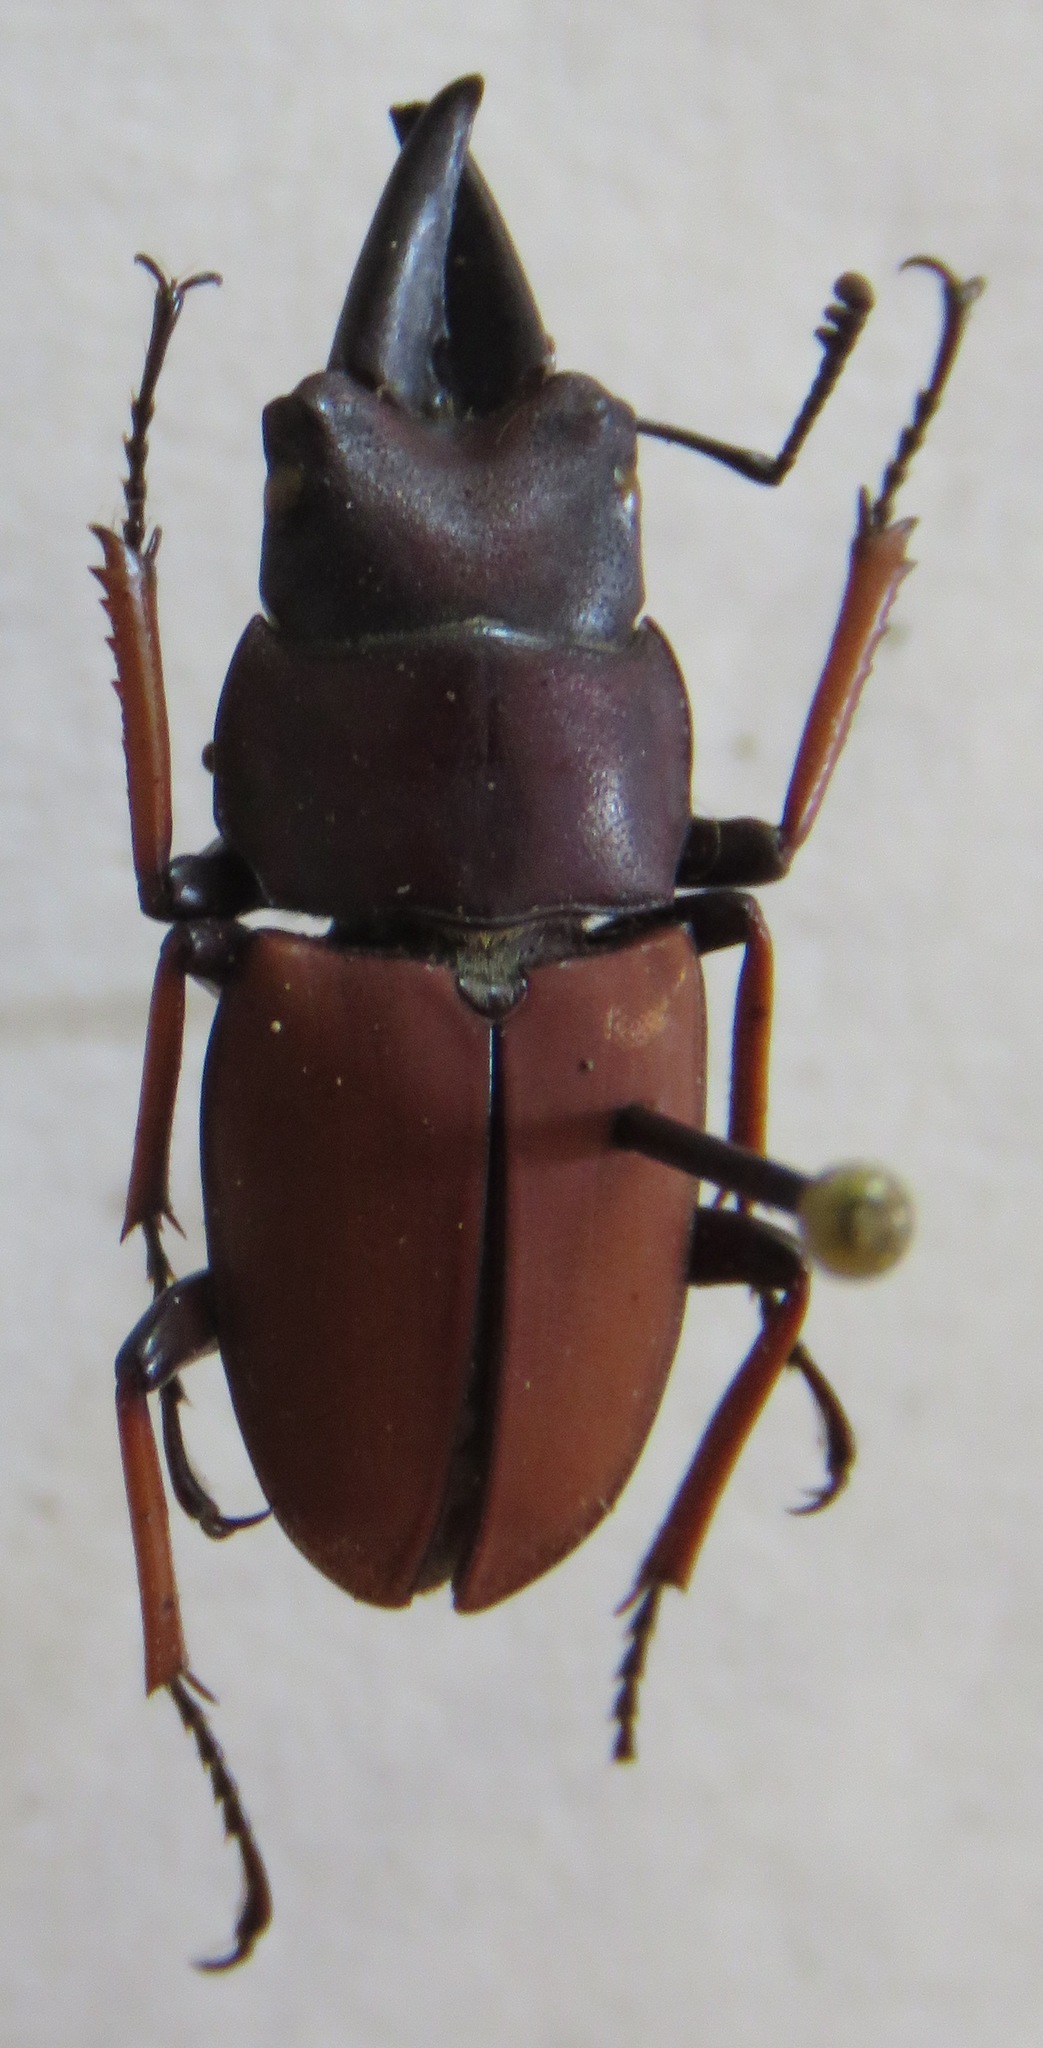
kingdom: Animalia
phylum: Arthropoda
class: Insecta
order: Coleoptera
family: Lucanidae
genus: Leptinopterus
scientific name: Leptinopterus tibialis
